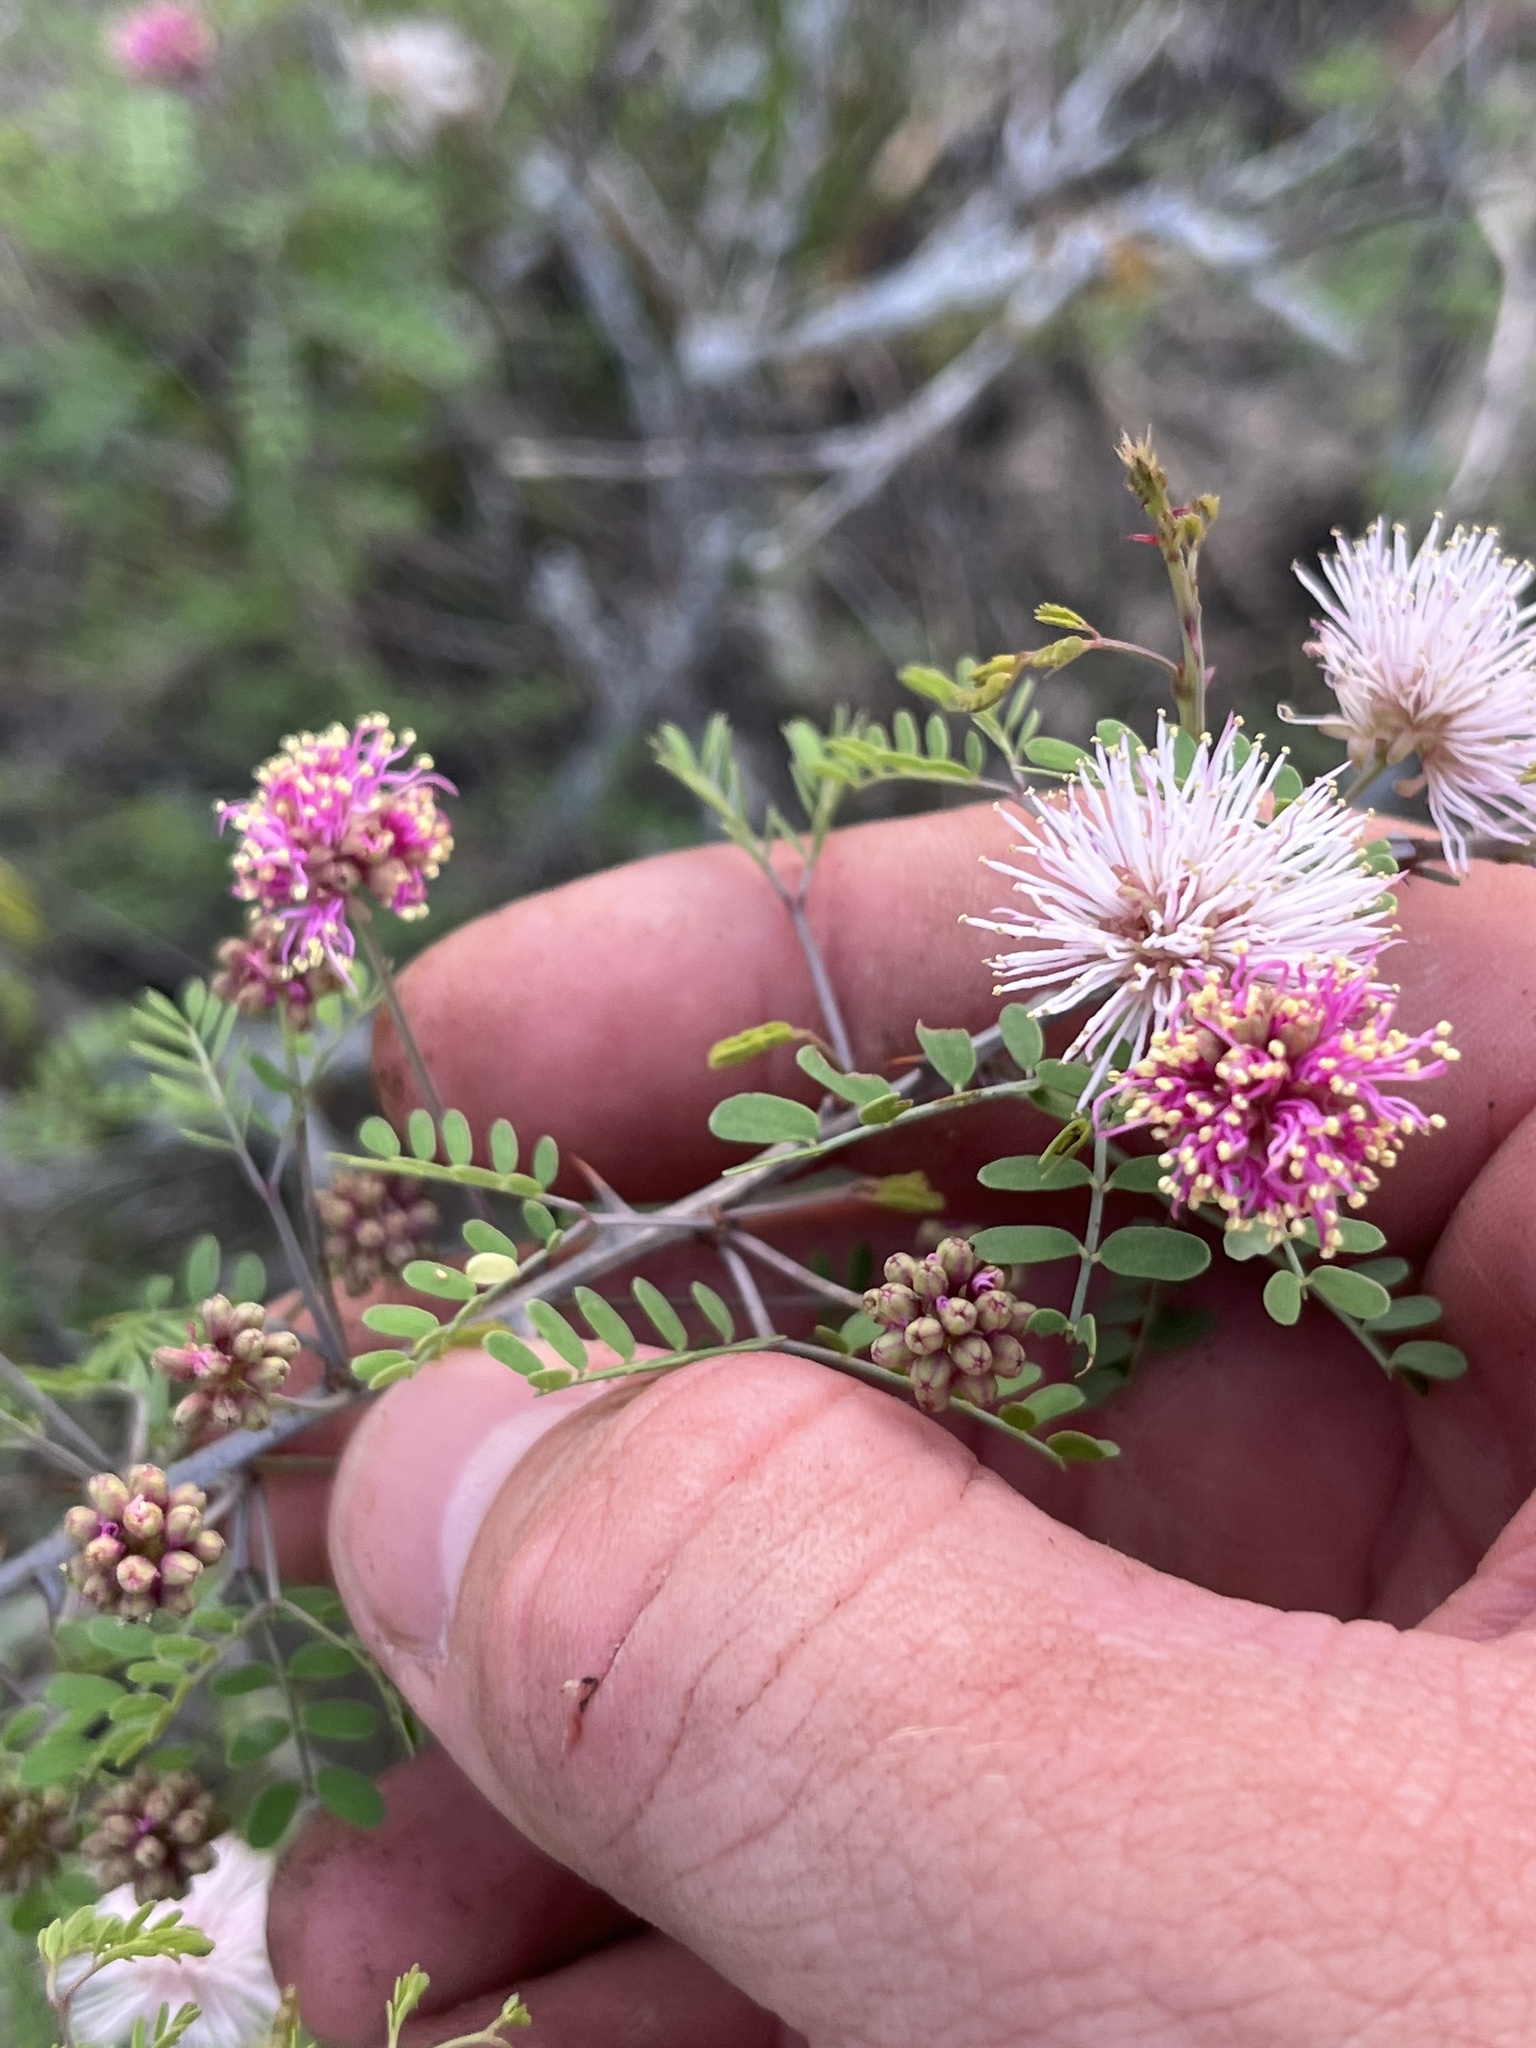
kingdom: Plantae
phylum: Tracheophyta
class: Magnoliopsida
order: Fabales
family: Fabaceae
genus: Mimosa
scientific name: Mimosa borealis
